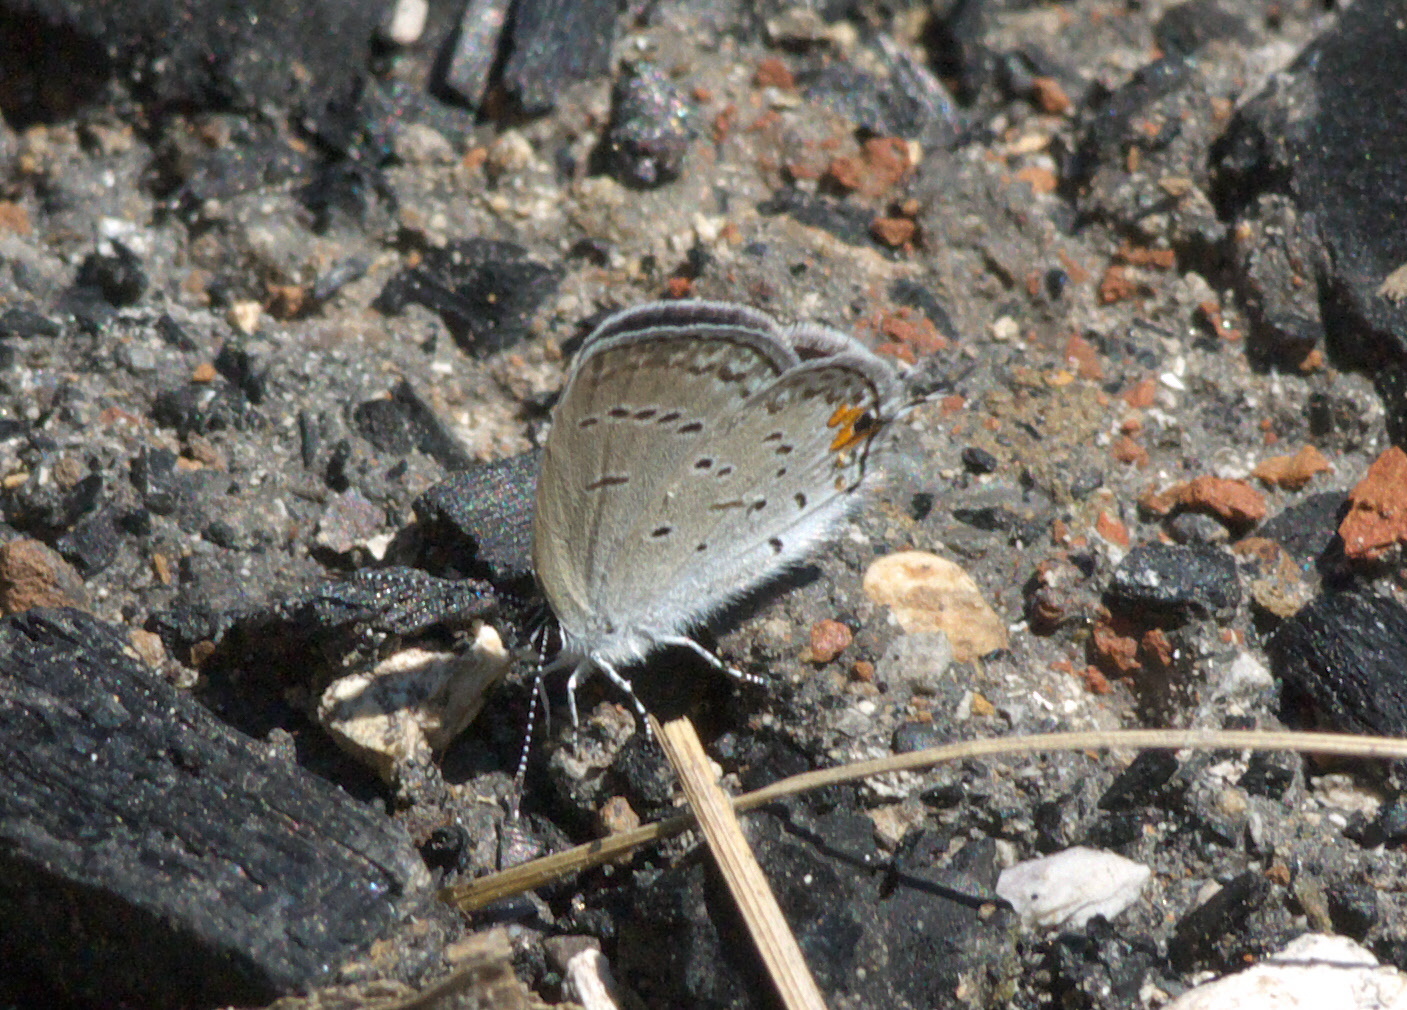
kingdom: Animalia
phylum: Arthropoda
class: Insecta
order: Lepidoptera
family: Lycaenidae
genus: Elkalyce
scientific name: Elkalyce comyntas
